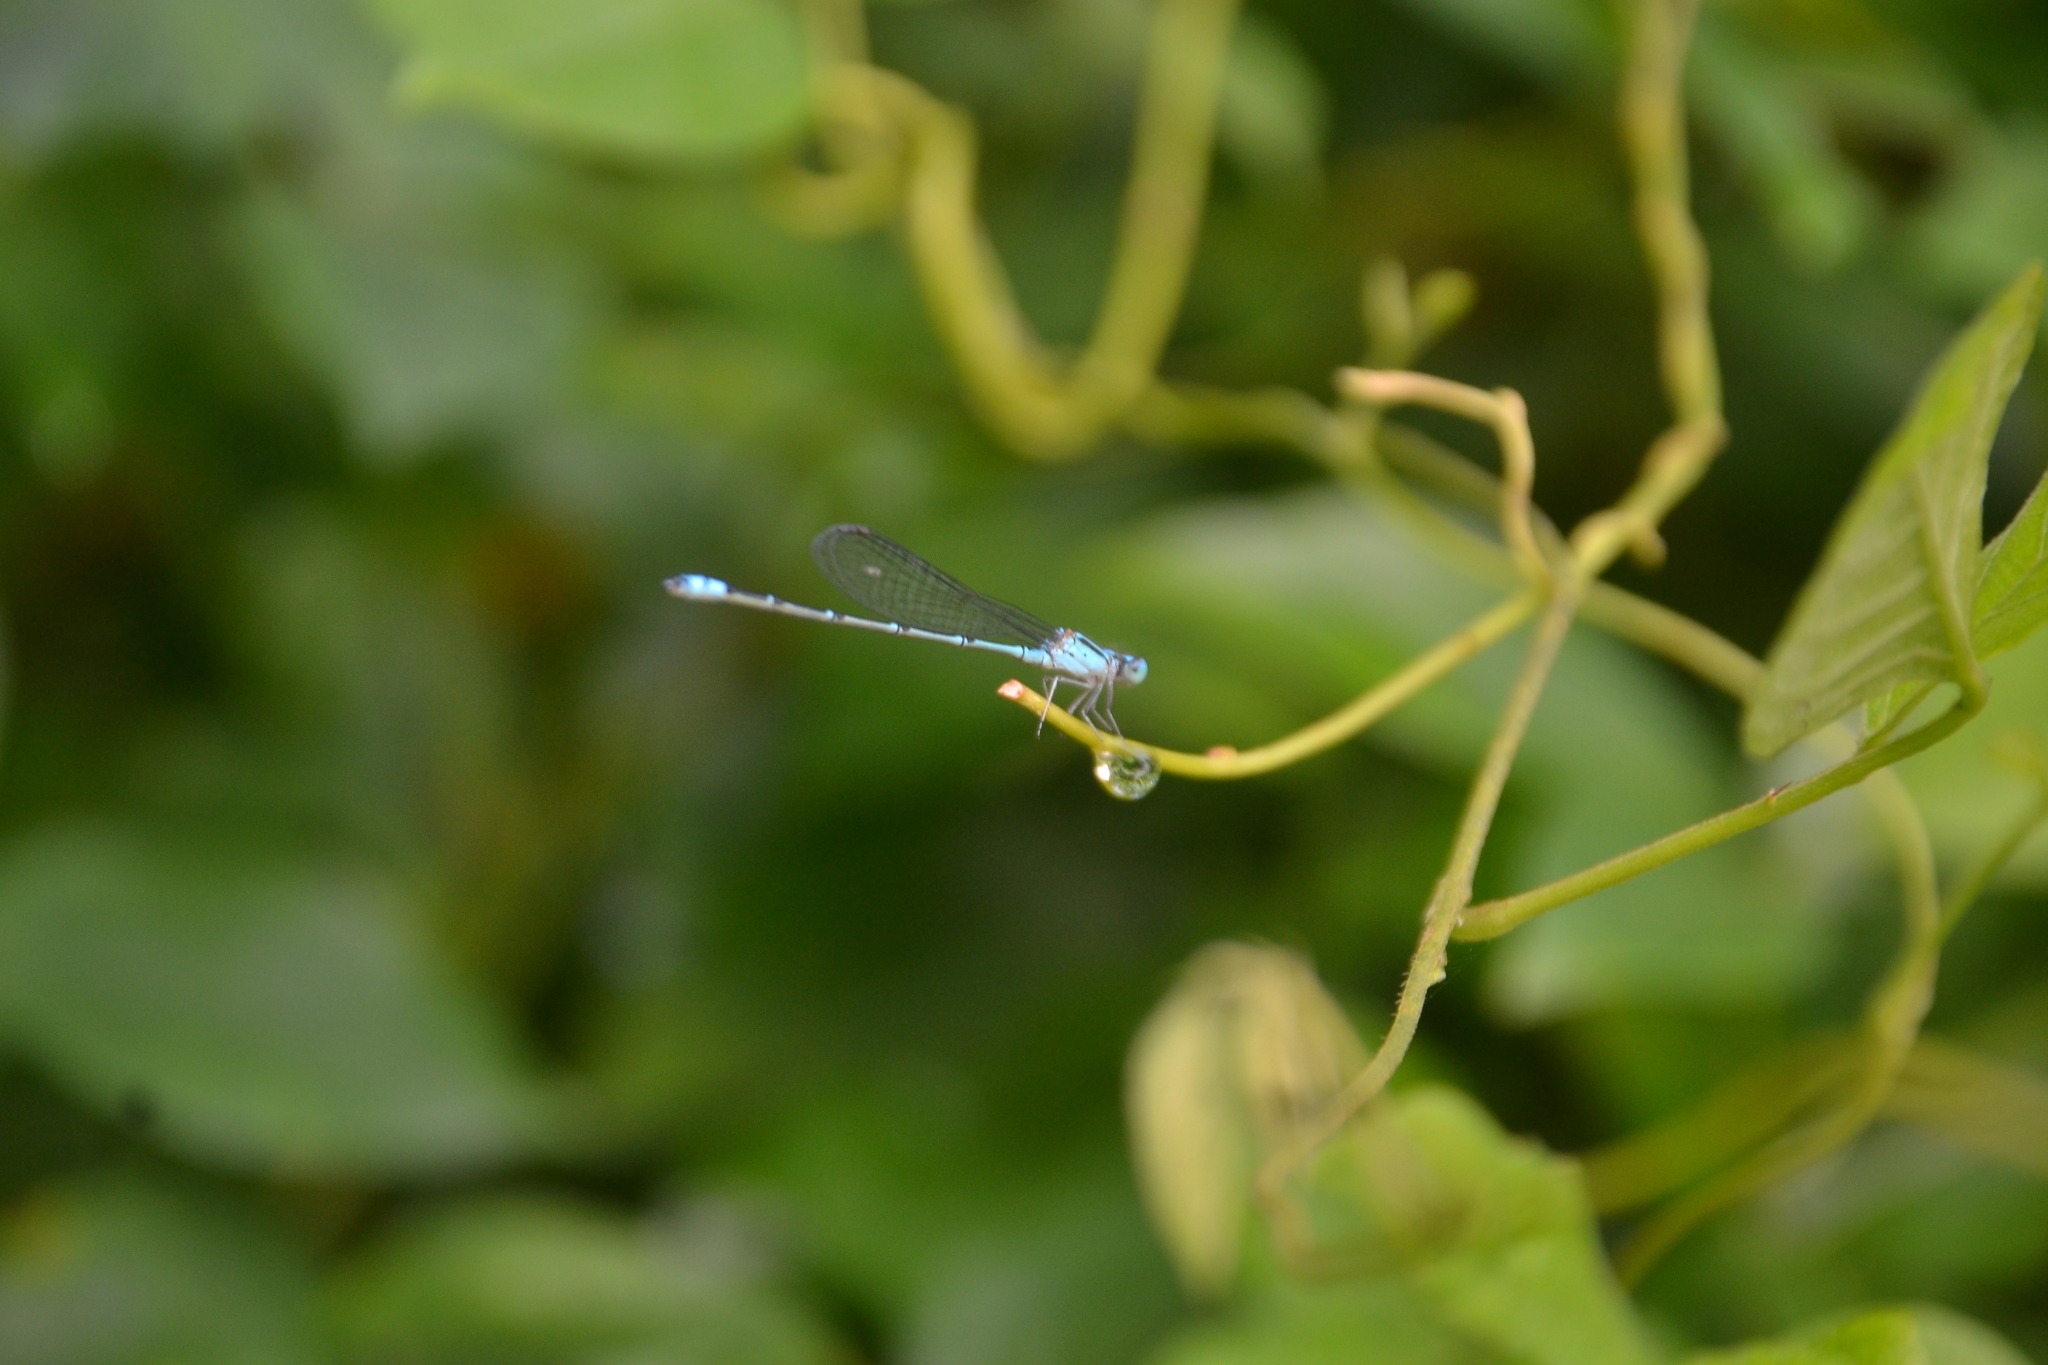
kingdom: Animalia
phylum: Arthropoda
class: Insecta
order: Odonata
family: Coenagrionidae
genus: Pseudagrion
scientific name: Pseudagrion microcephalum
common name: Blue riverdamsel
